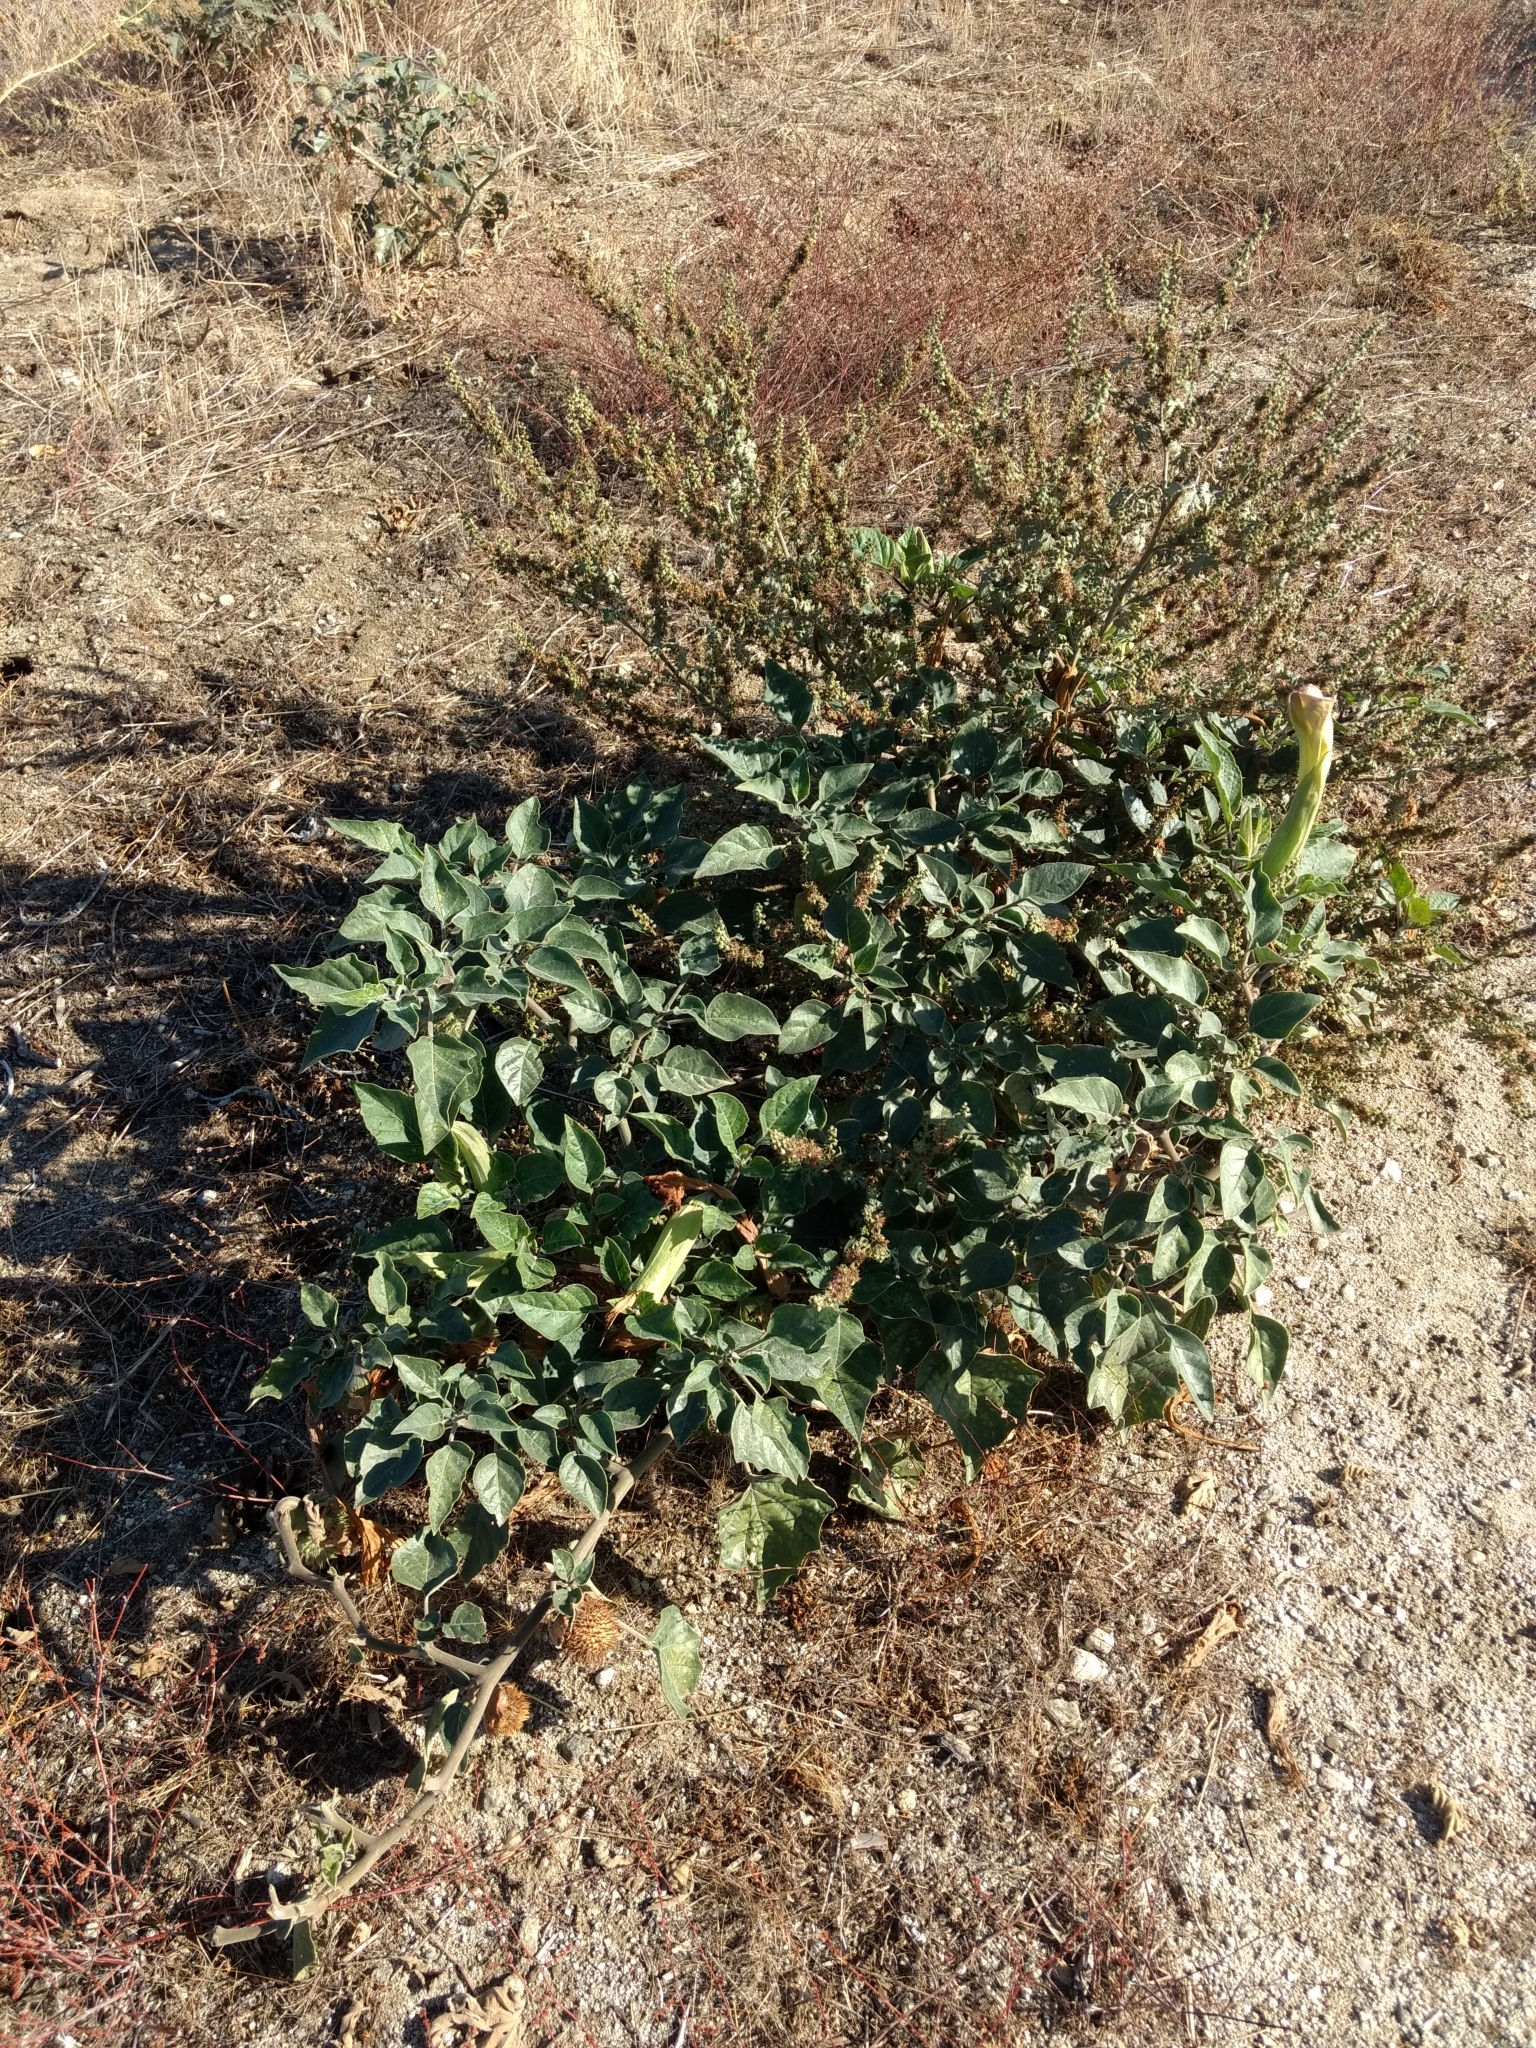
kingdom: Plantae
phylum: Tracheophyta
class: Magnoliopsida
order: Solanales
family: Solanaceae
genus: Datura
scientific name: Datura wrightii
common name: Sacred thorn-apple
